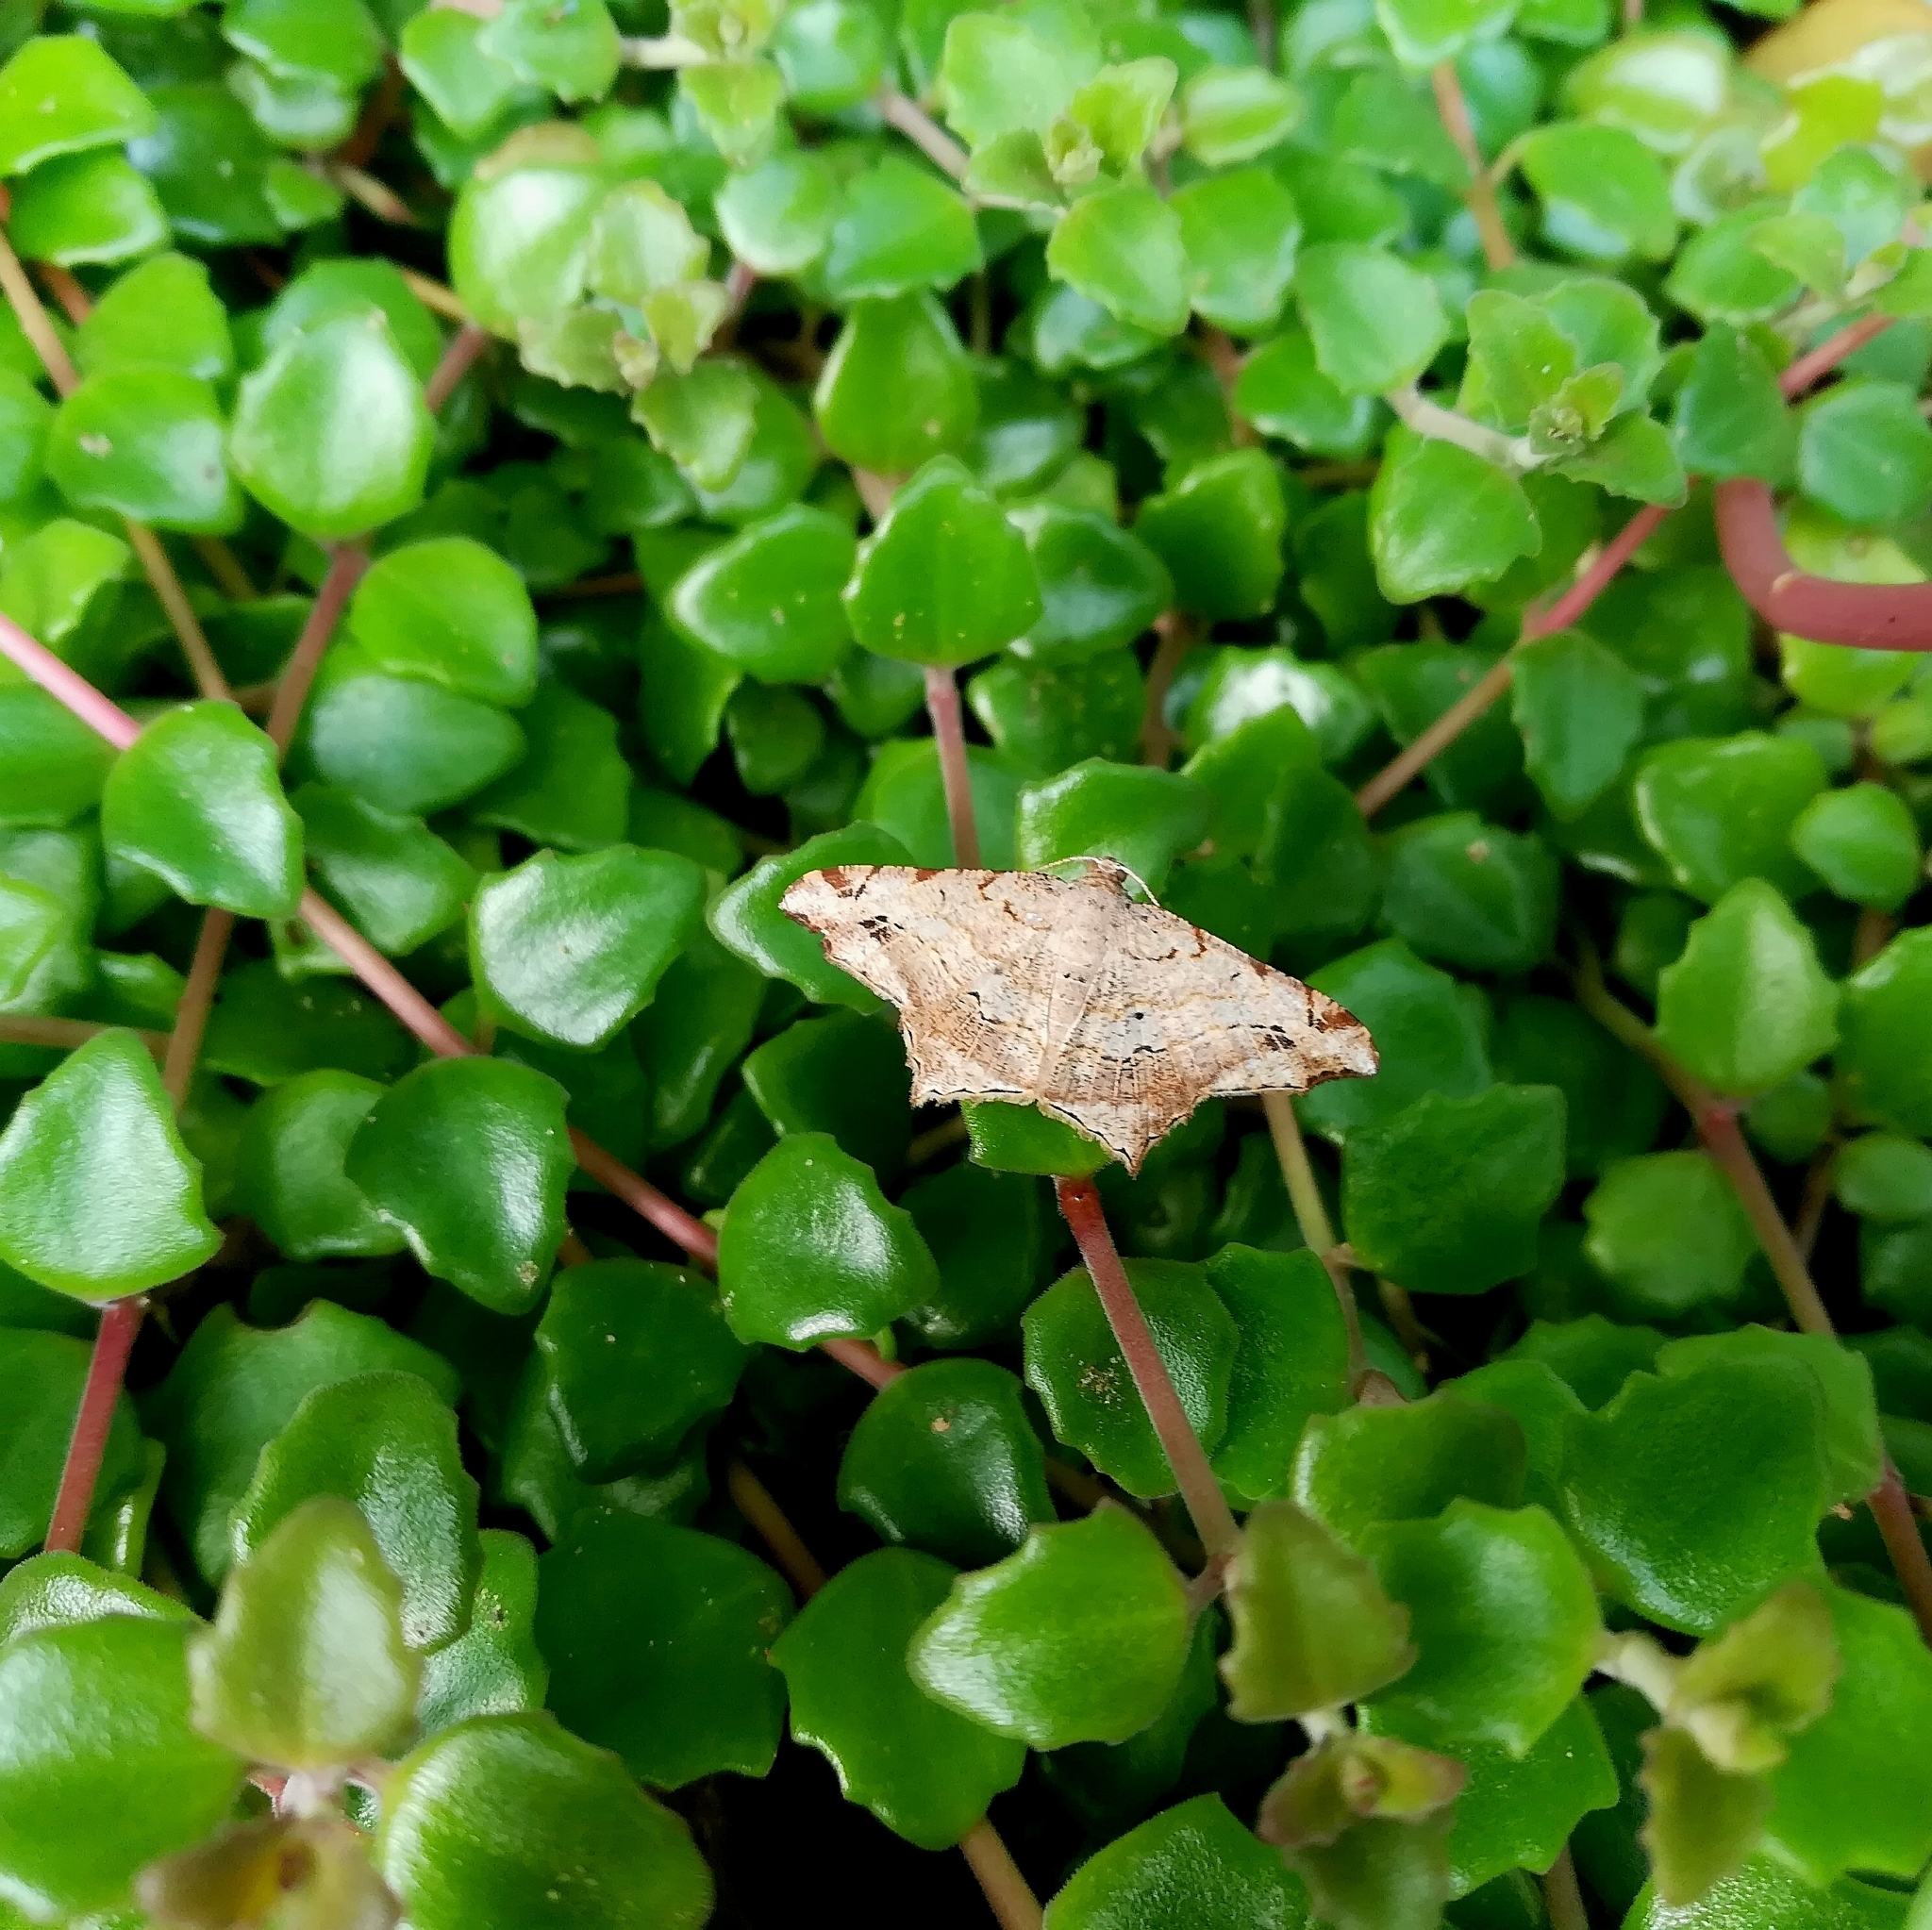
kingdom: Animalia
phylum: Arthropoda
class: Insecta
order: Lepidoptera
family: Geometridae
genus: Chiasmia
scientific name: Chiasmia emersaria
